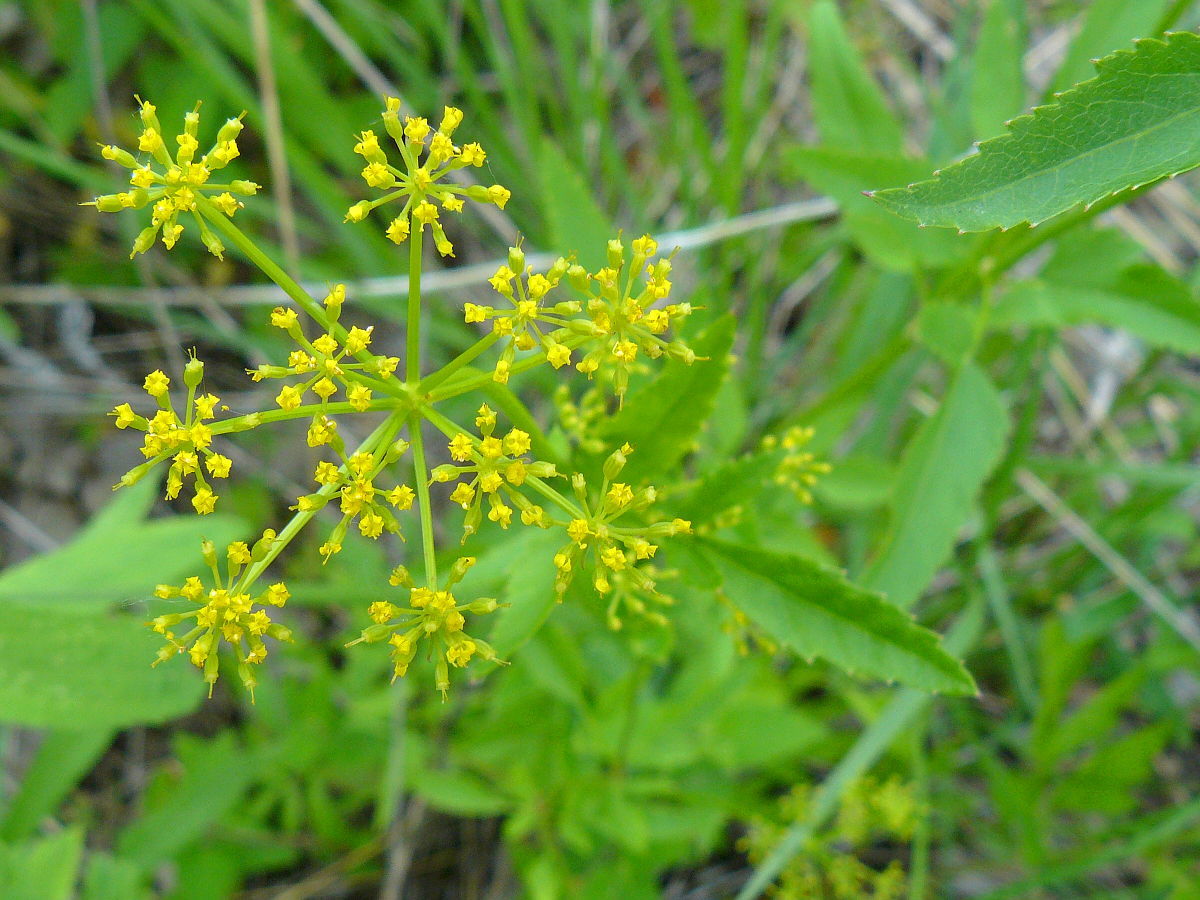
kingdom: Plantae
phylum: Tracheophyta
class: Magnoliopsida
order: Apiales
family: Apiaceae
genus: Zizia
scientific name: Zizia aurea
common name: Golden alexanders
